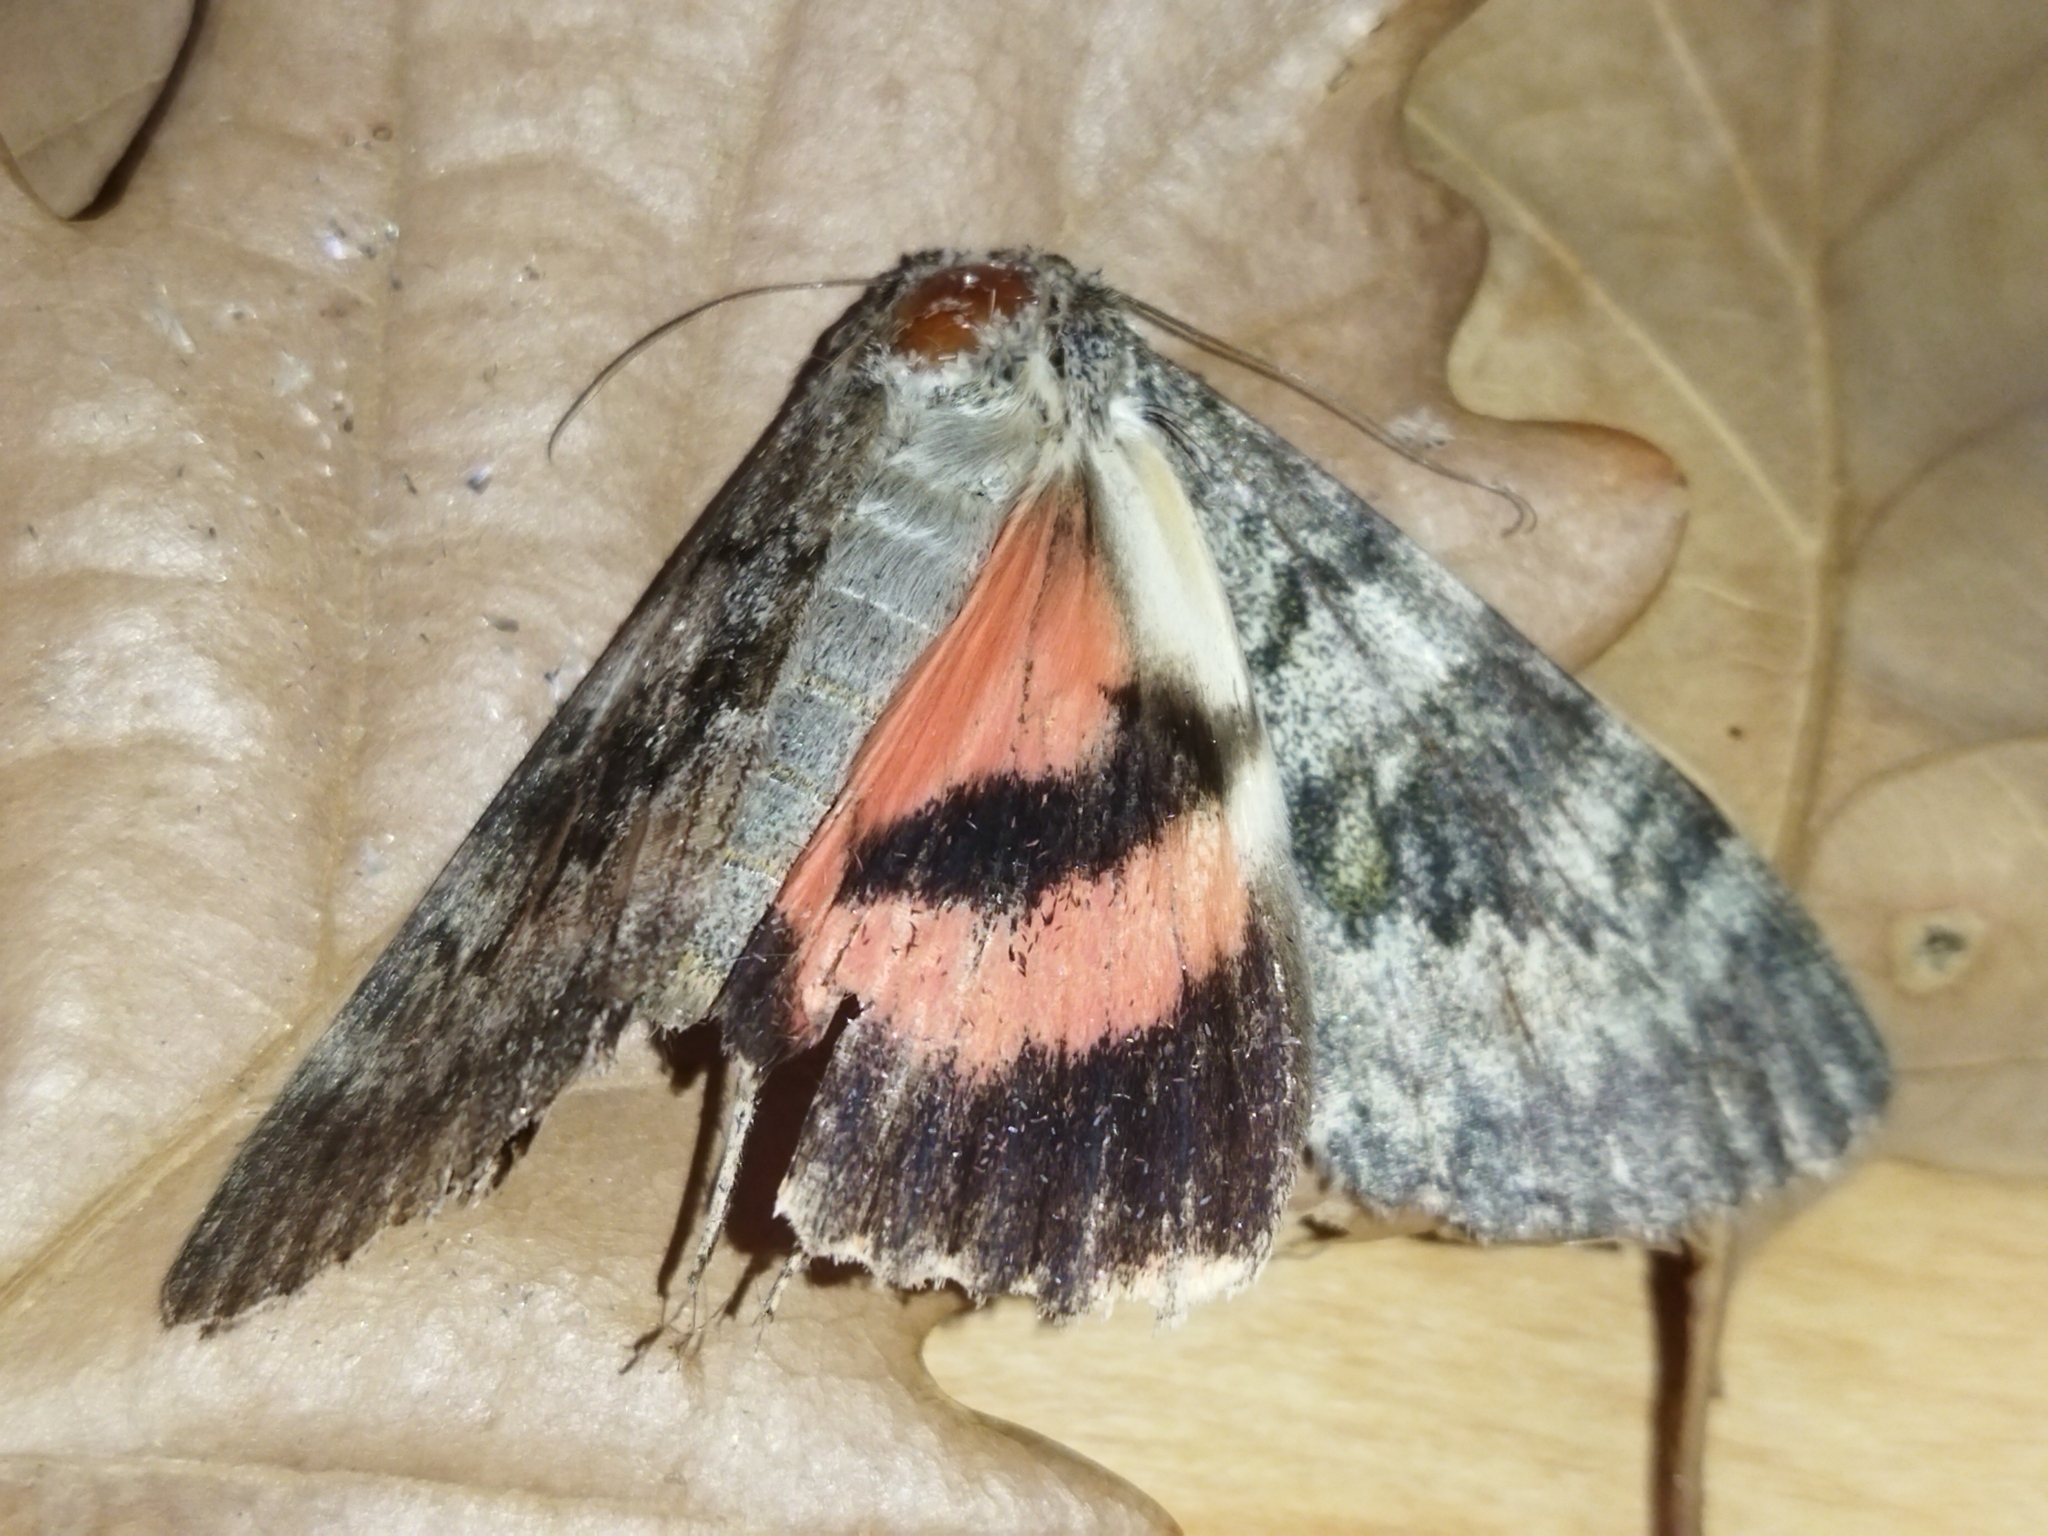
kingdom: Animalia
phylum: Arthropoda
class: Insecta
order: Lepidoptera
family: Erebidae
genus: Catocala
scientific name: Catocala elocata
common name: French red underwing
